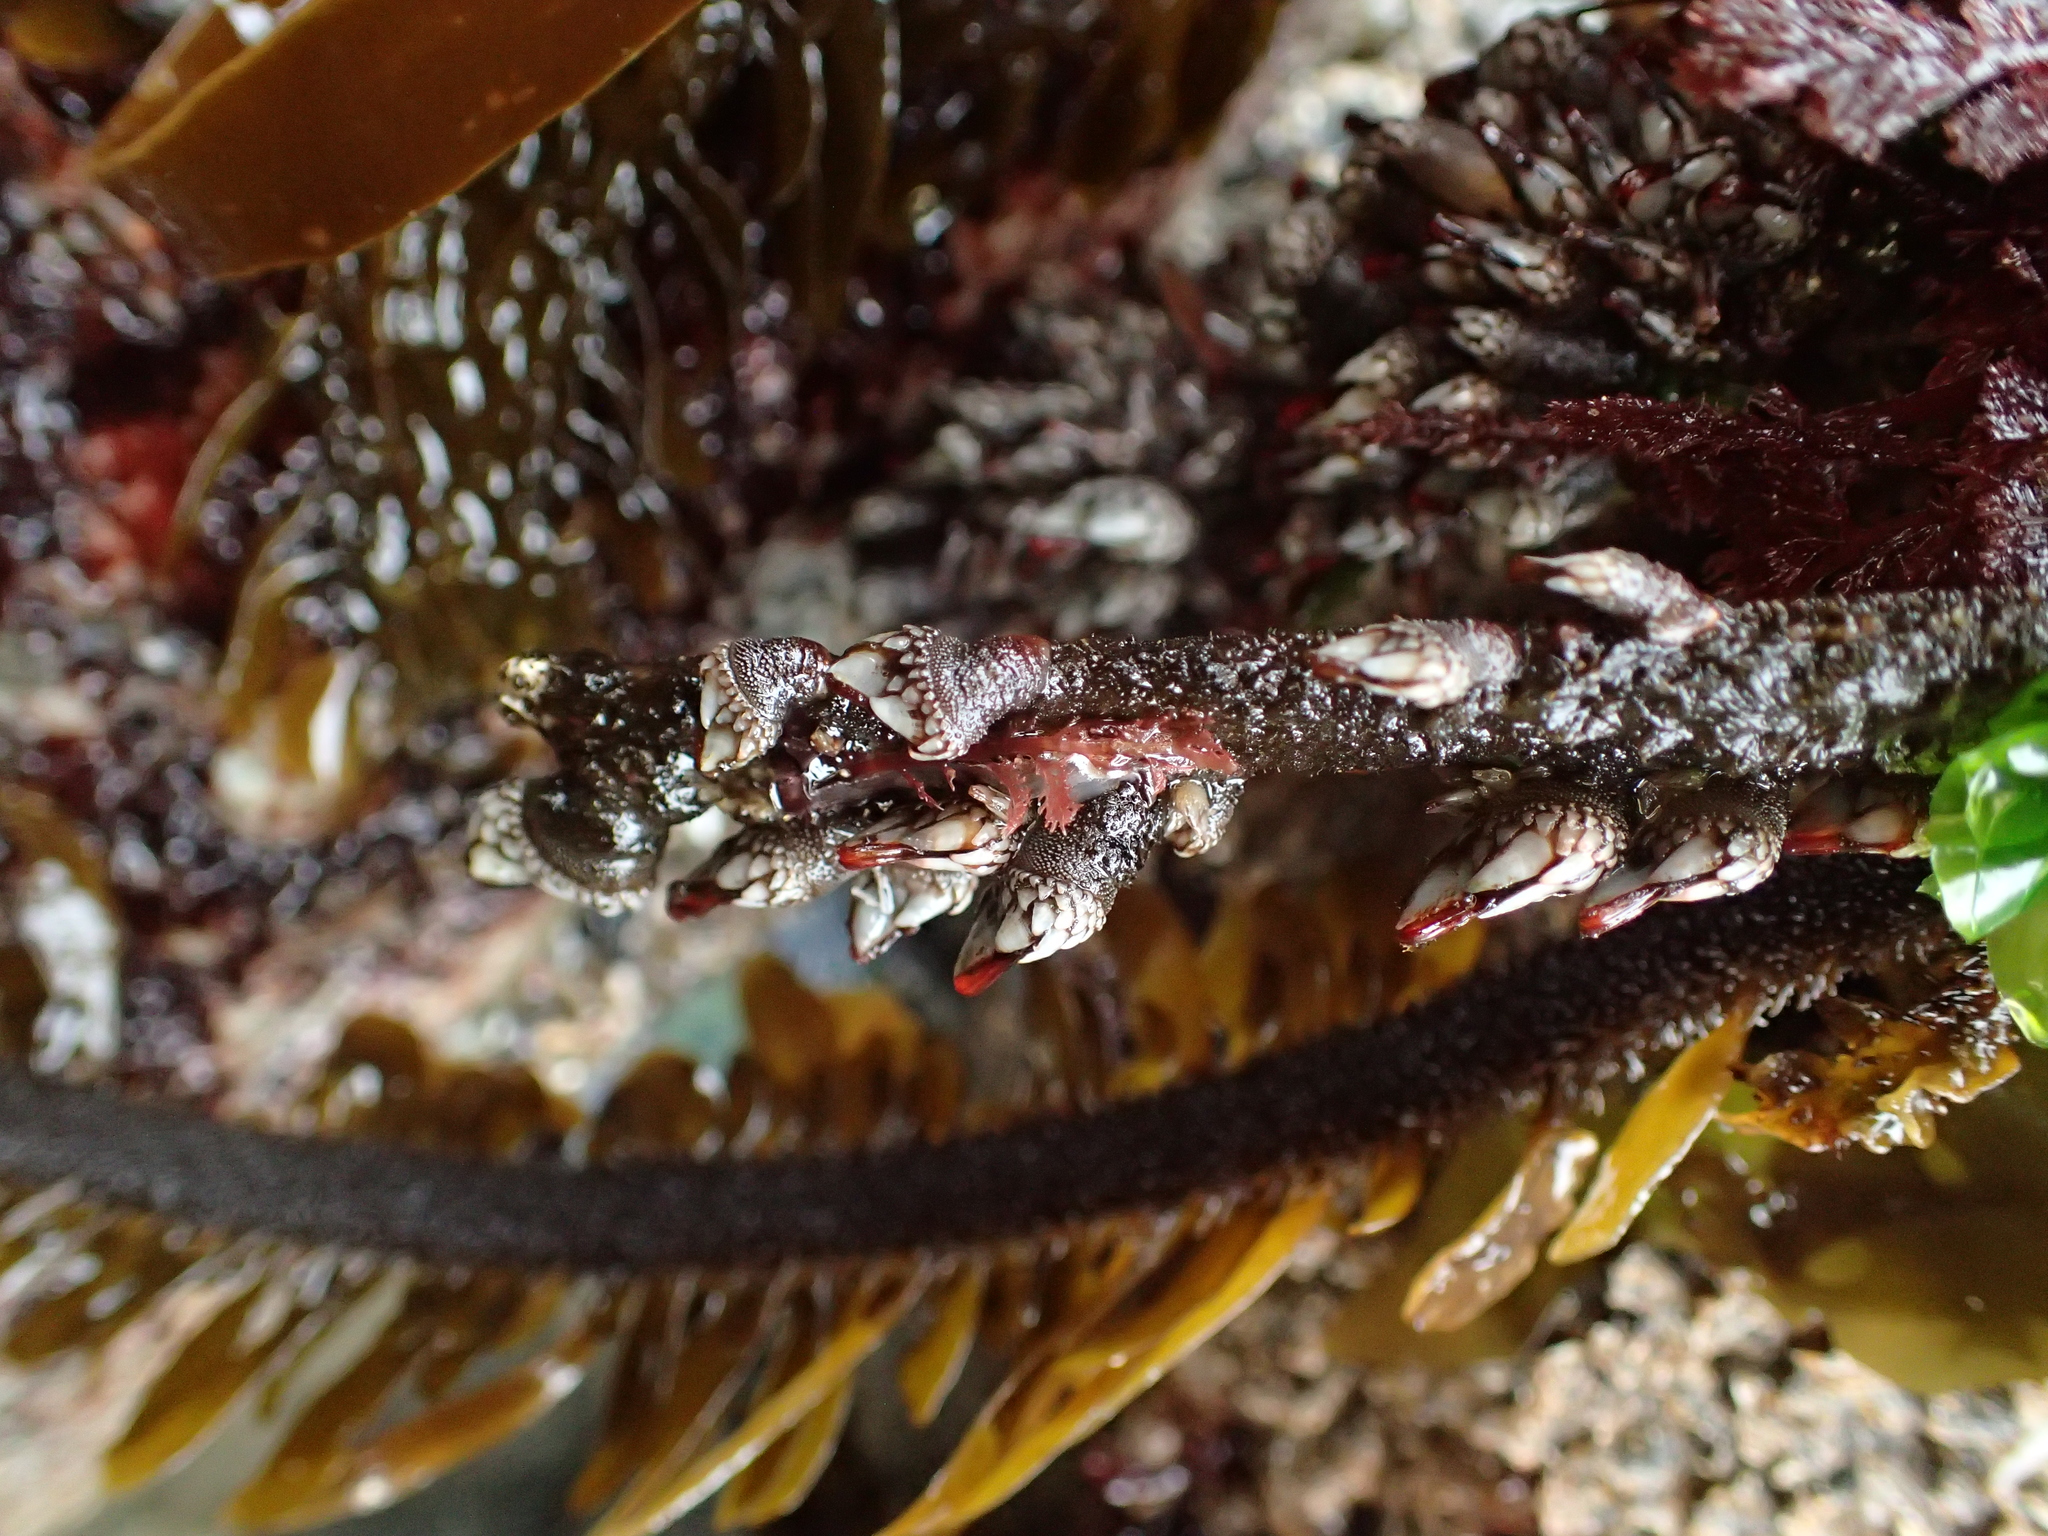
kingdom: Chromista
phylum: Ochrophyta
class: Phaeophyceae
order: Laminariales
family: Lessoniaceae
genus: Egregia
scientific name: Egregia menziesii
